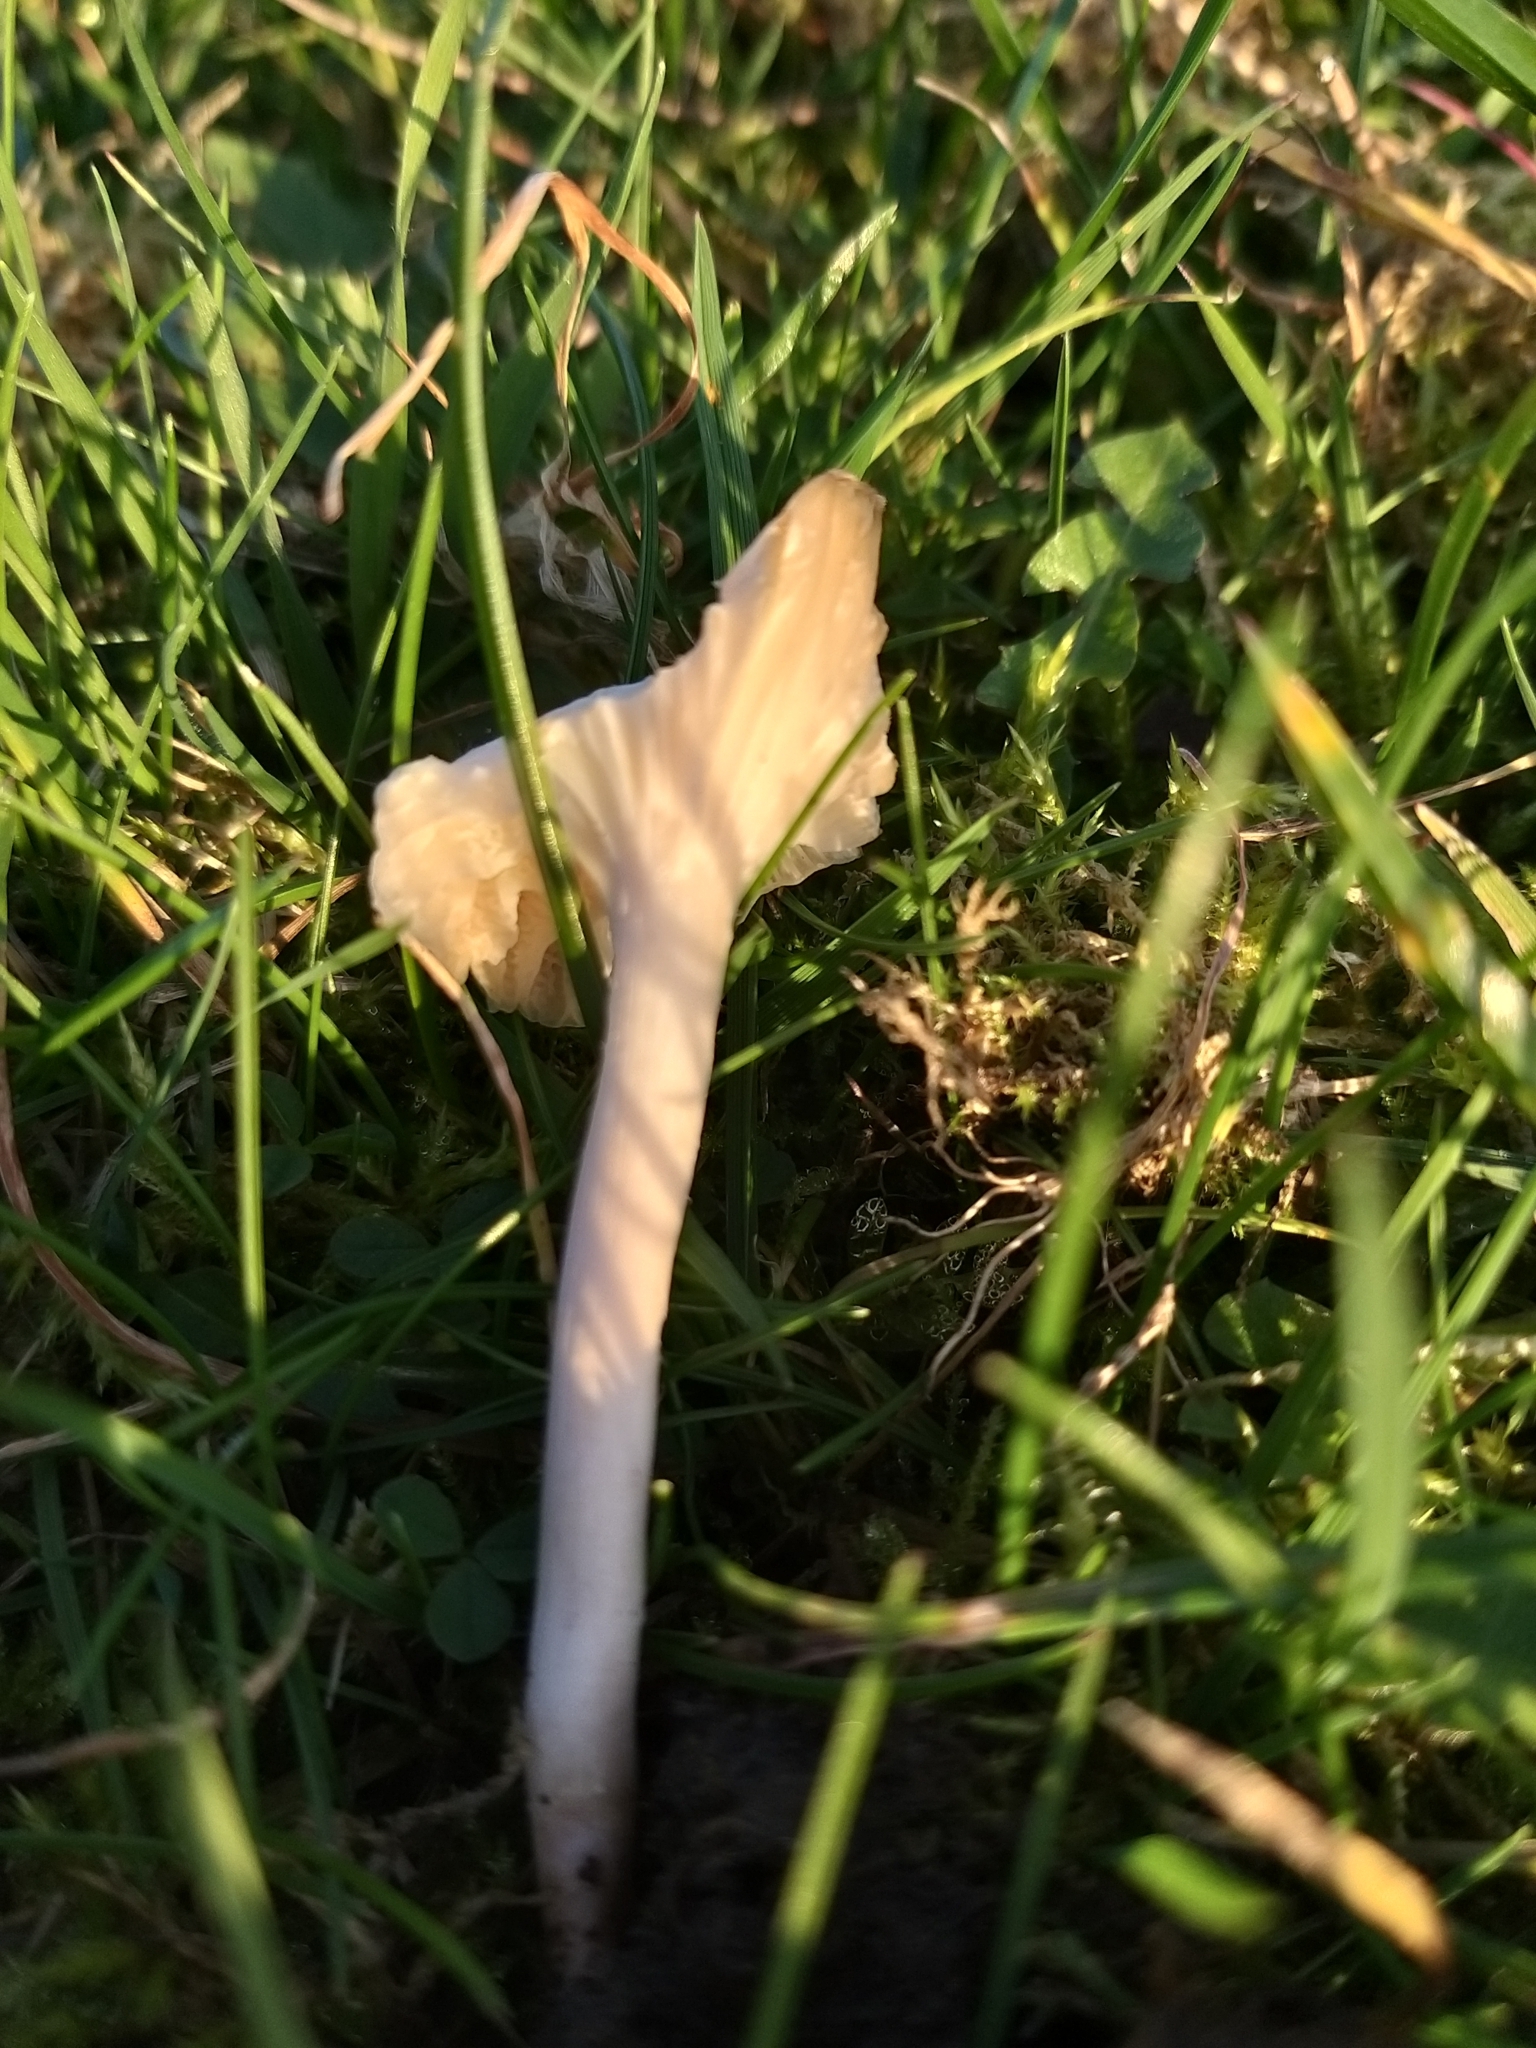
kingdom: Fungi
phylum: Basidiomycota
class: Agaricomycetes
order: Agaricales
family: Hygrophoraceae
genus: Cuphophyllus
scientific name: Cuphophyllus virgineus
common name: Snowy waxcap
